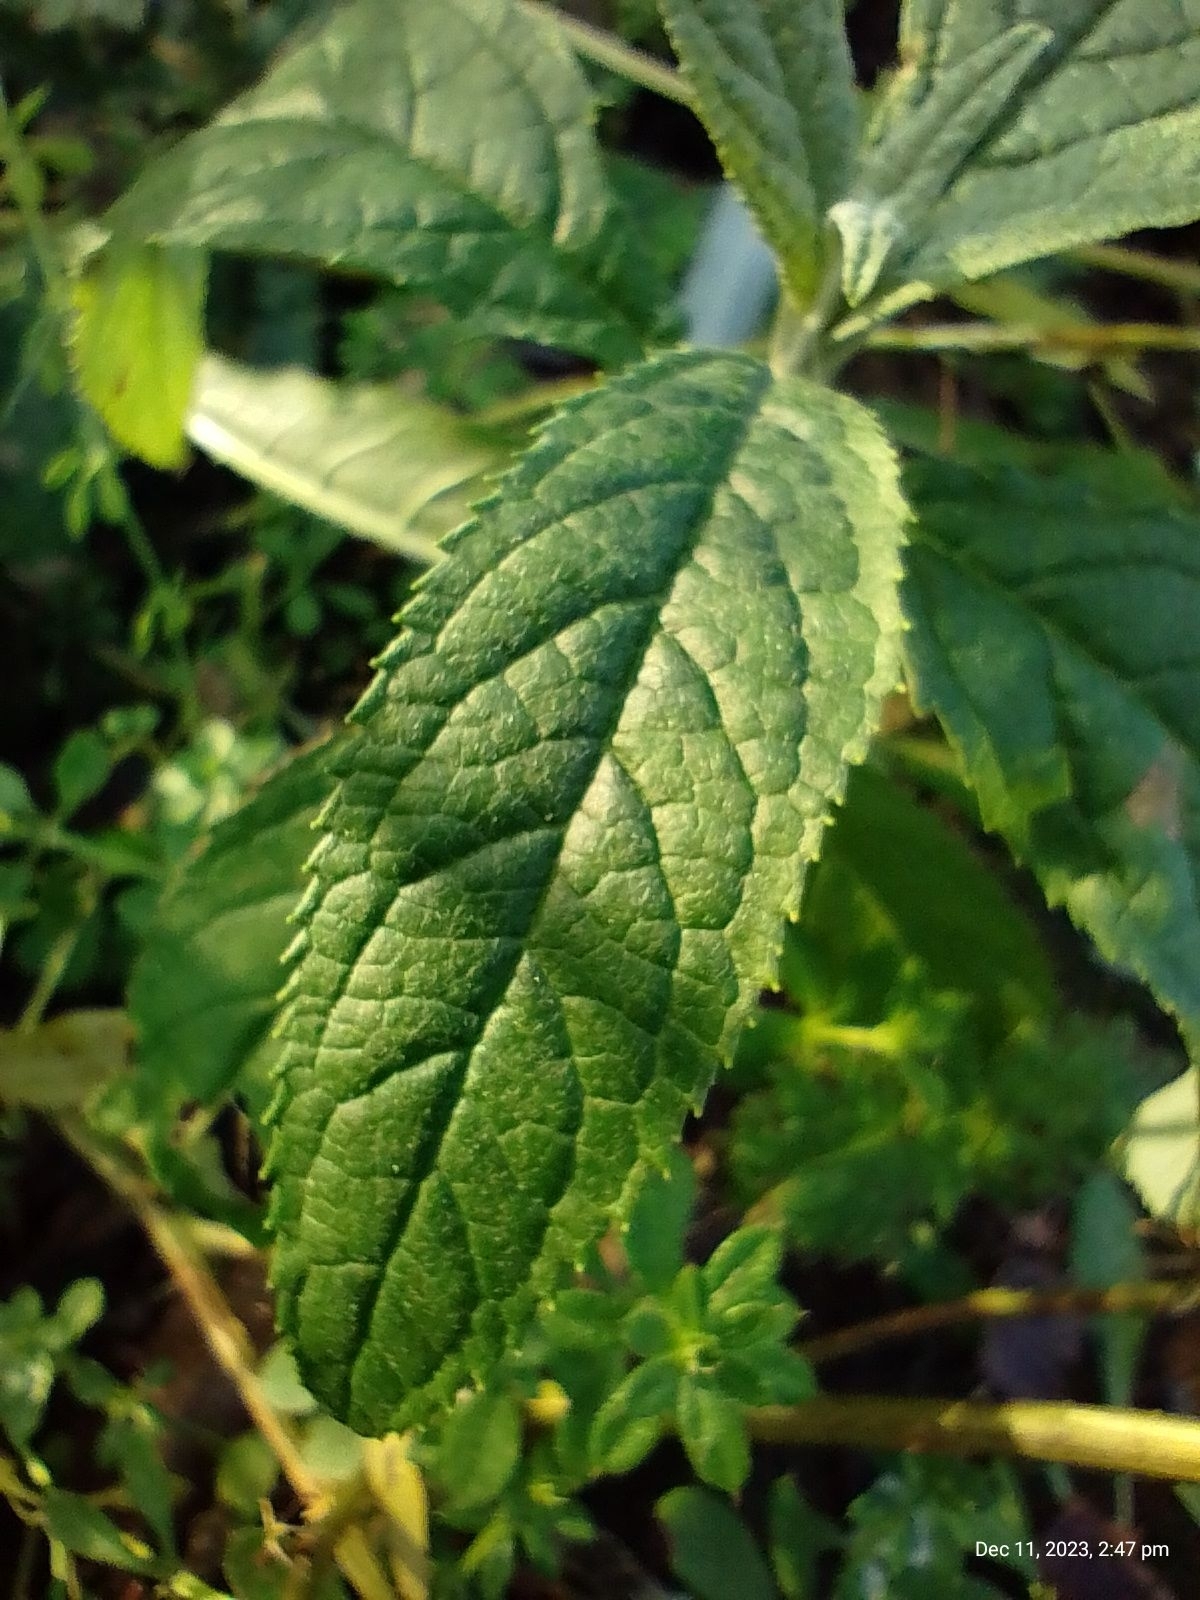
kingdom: Plantae
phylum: Tracheophyta
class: Magnoliopsida
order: Lamiales
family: Scrophulariaceae
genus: Buddleja
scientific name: Buddleja davidii
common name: Butterfly-bush
